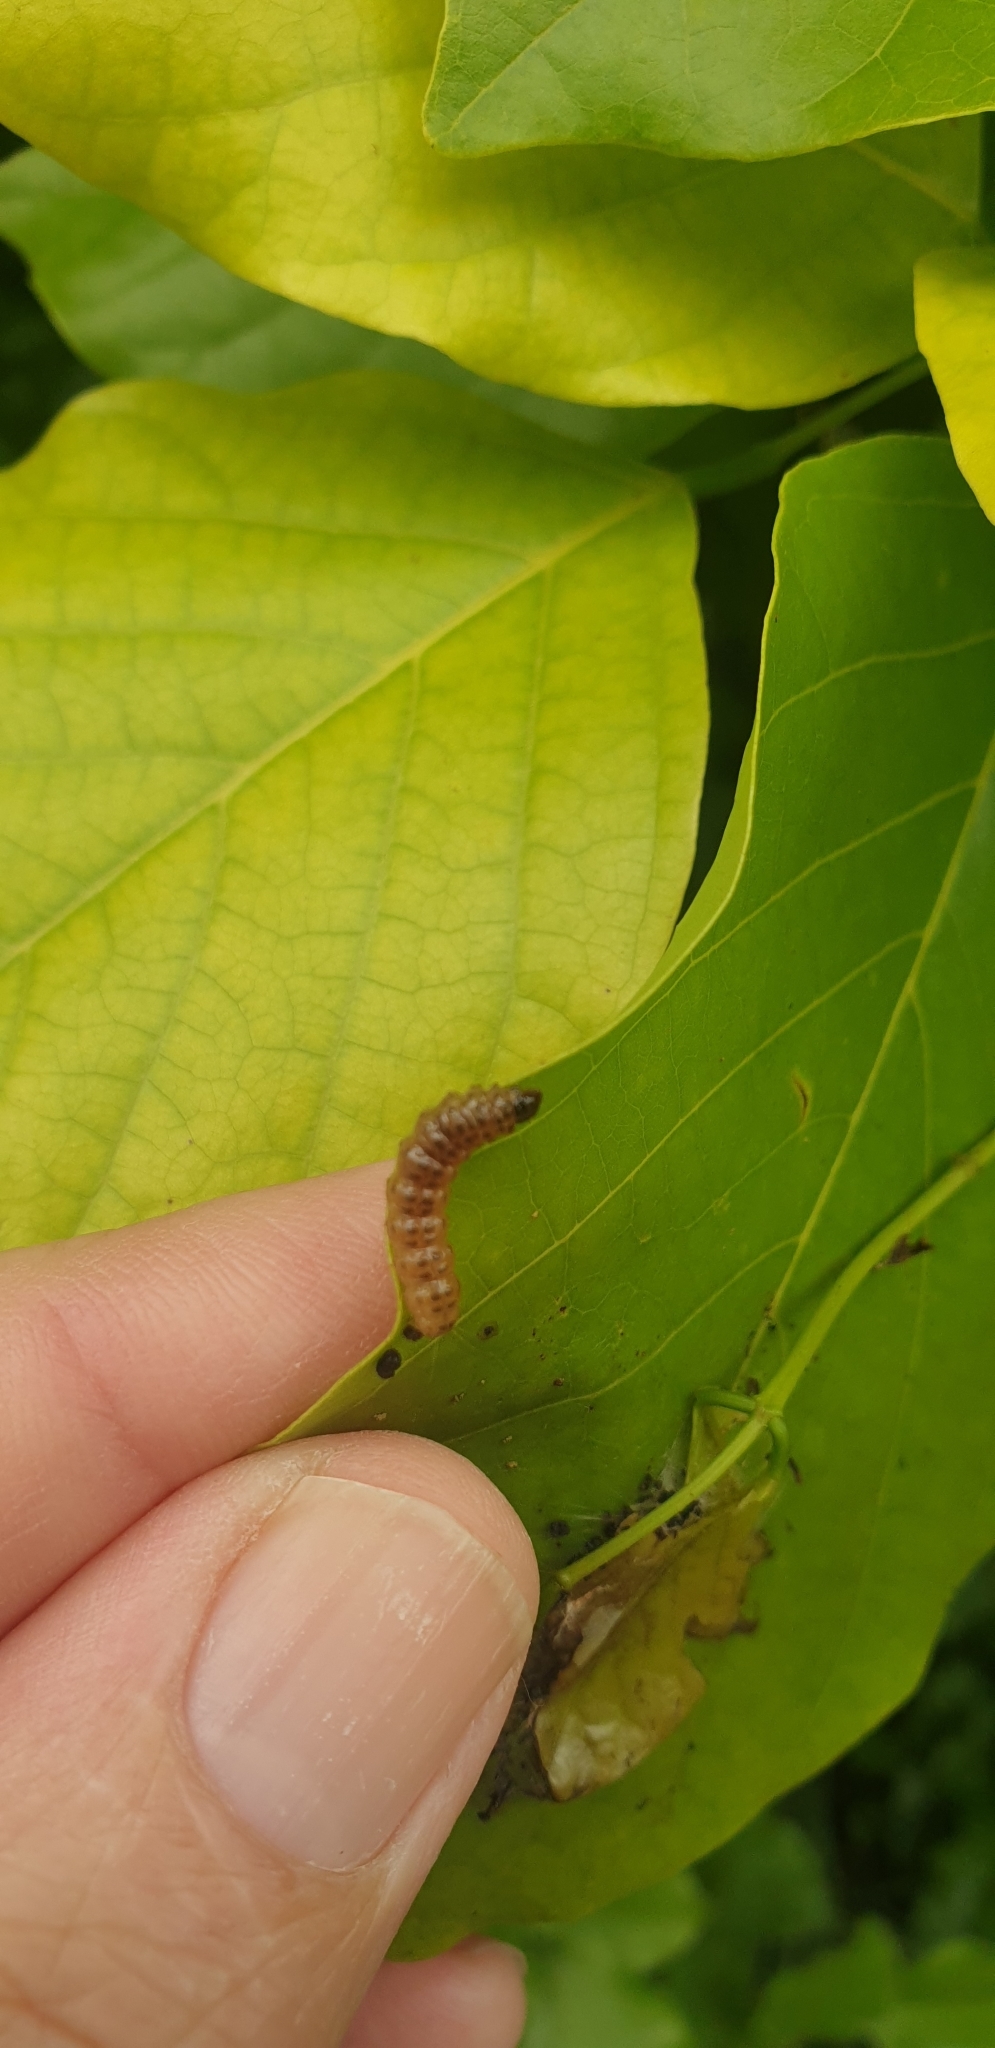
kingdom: Animalia
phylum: Arthropoda
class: Insecta
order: Lepidoptera
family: Crambidae
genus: Trigonoorda
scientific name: Trigonoorda gavisalis
